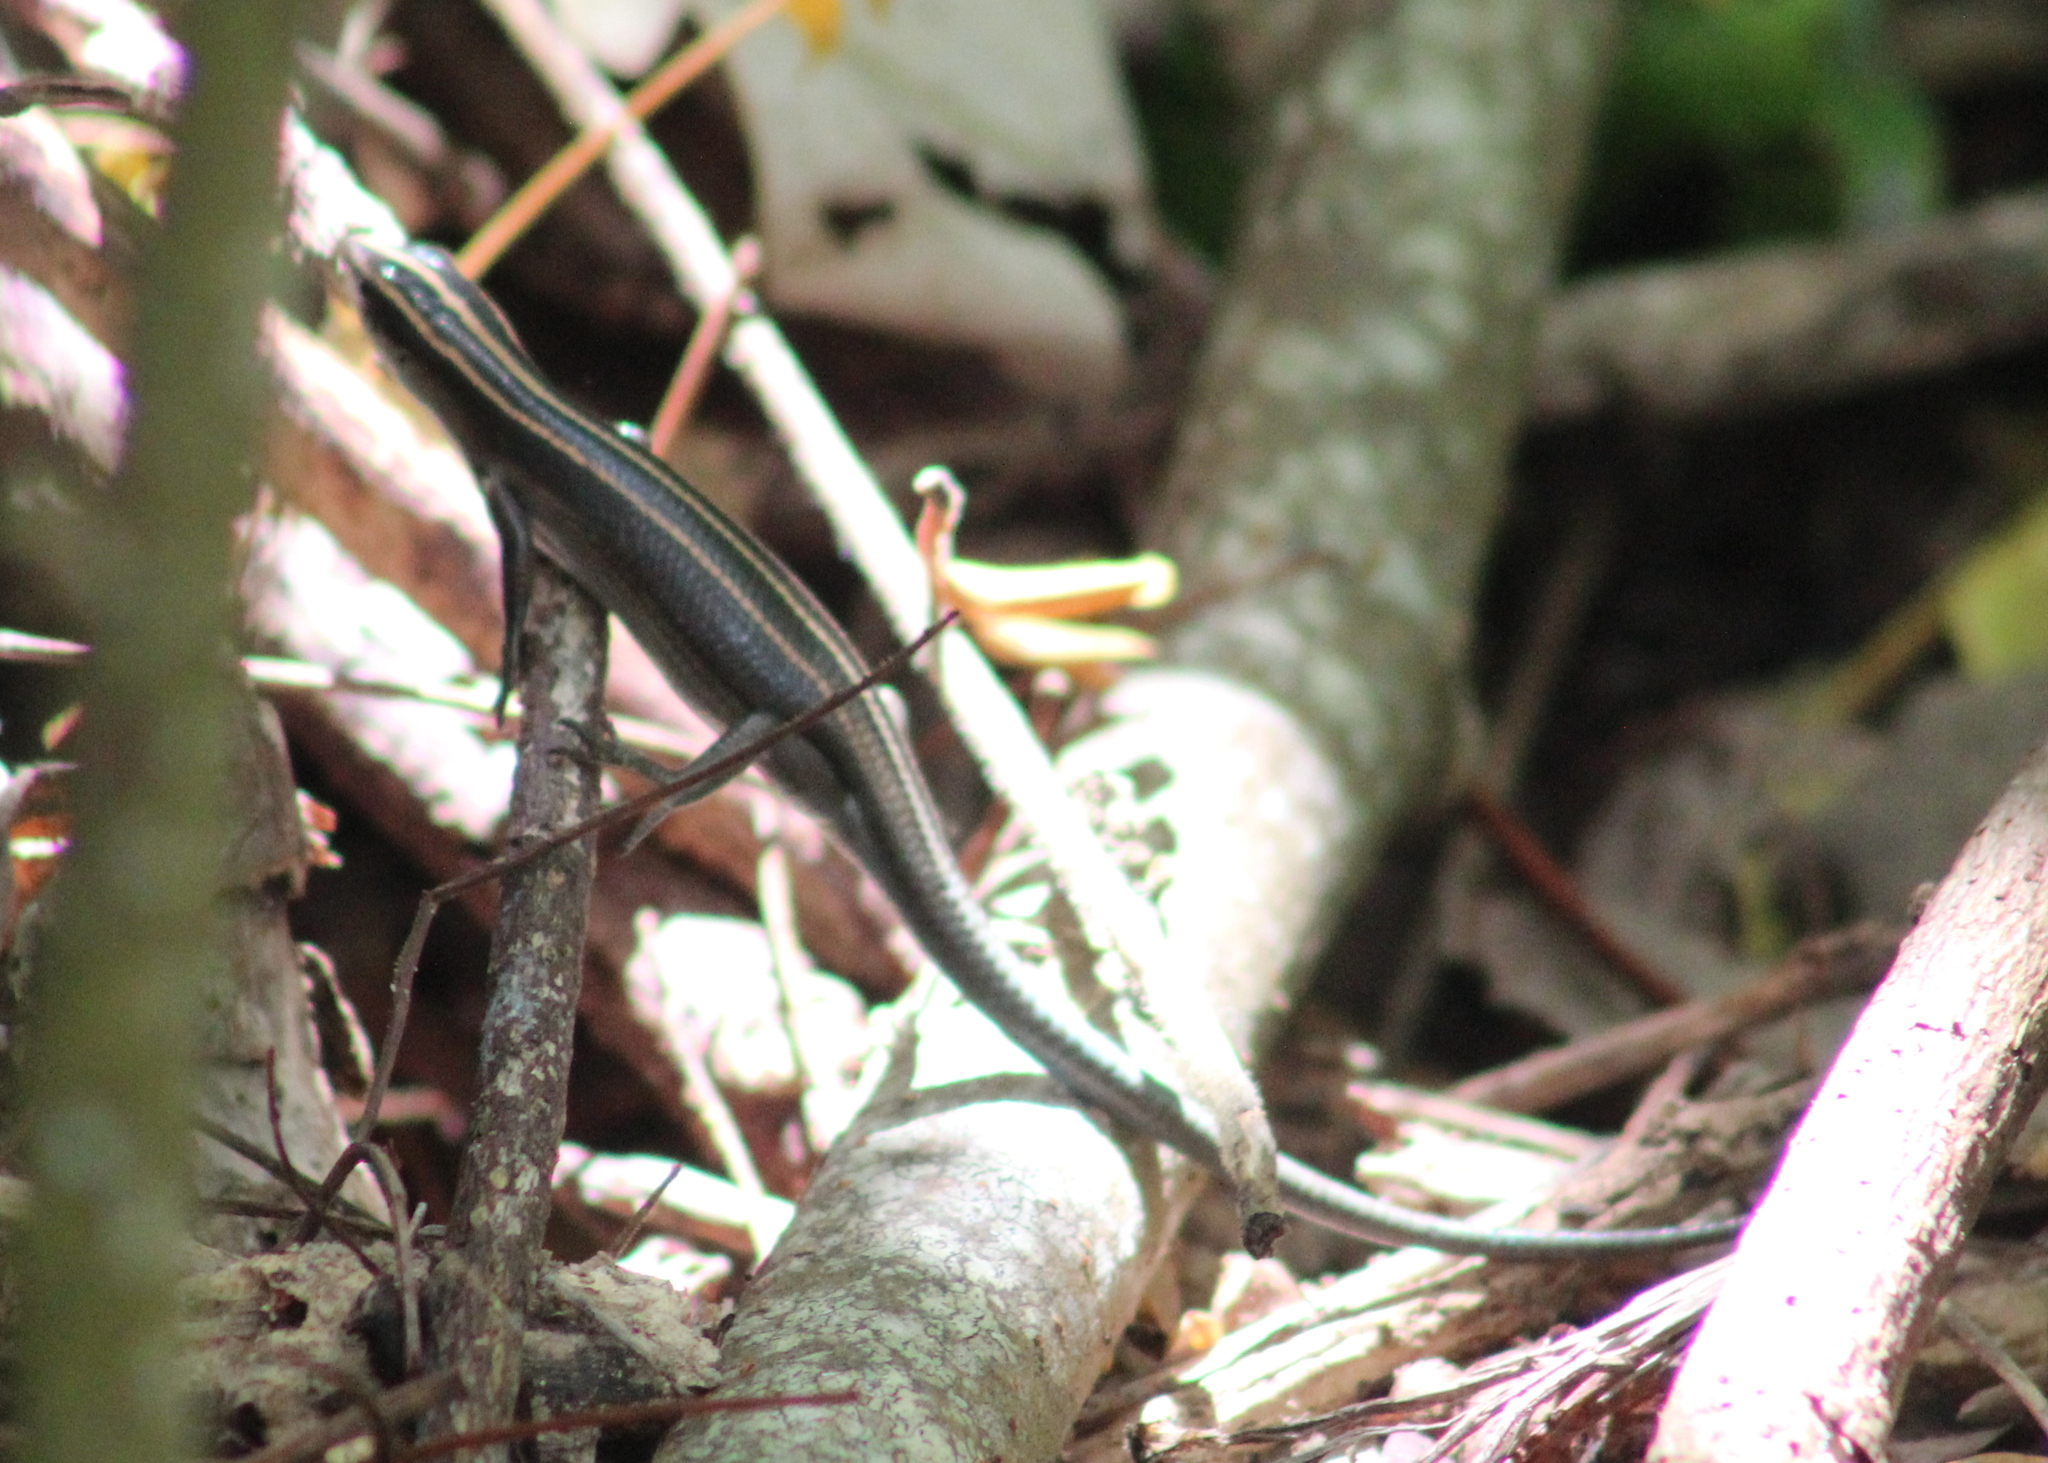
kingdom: Animalia
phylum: Chordata
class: Squamata
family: Scincidae
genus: Emoia
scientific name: Emoia impar
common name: Azure-tailed skink
